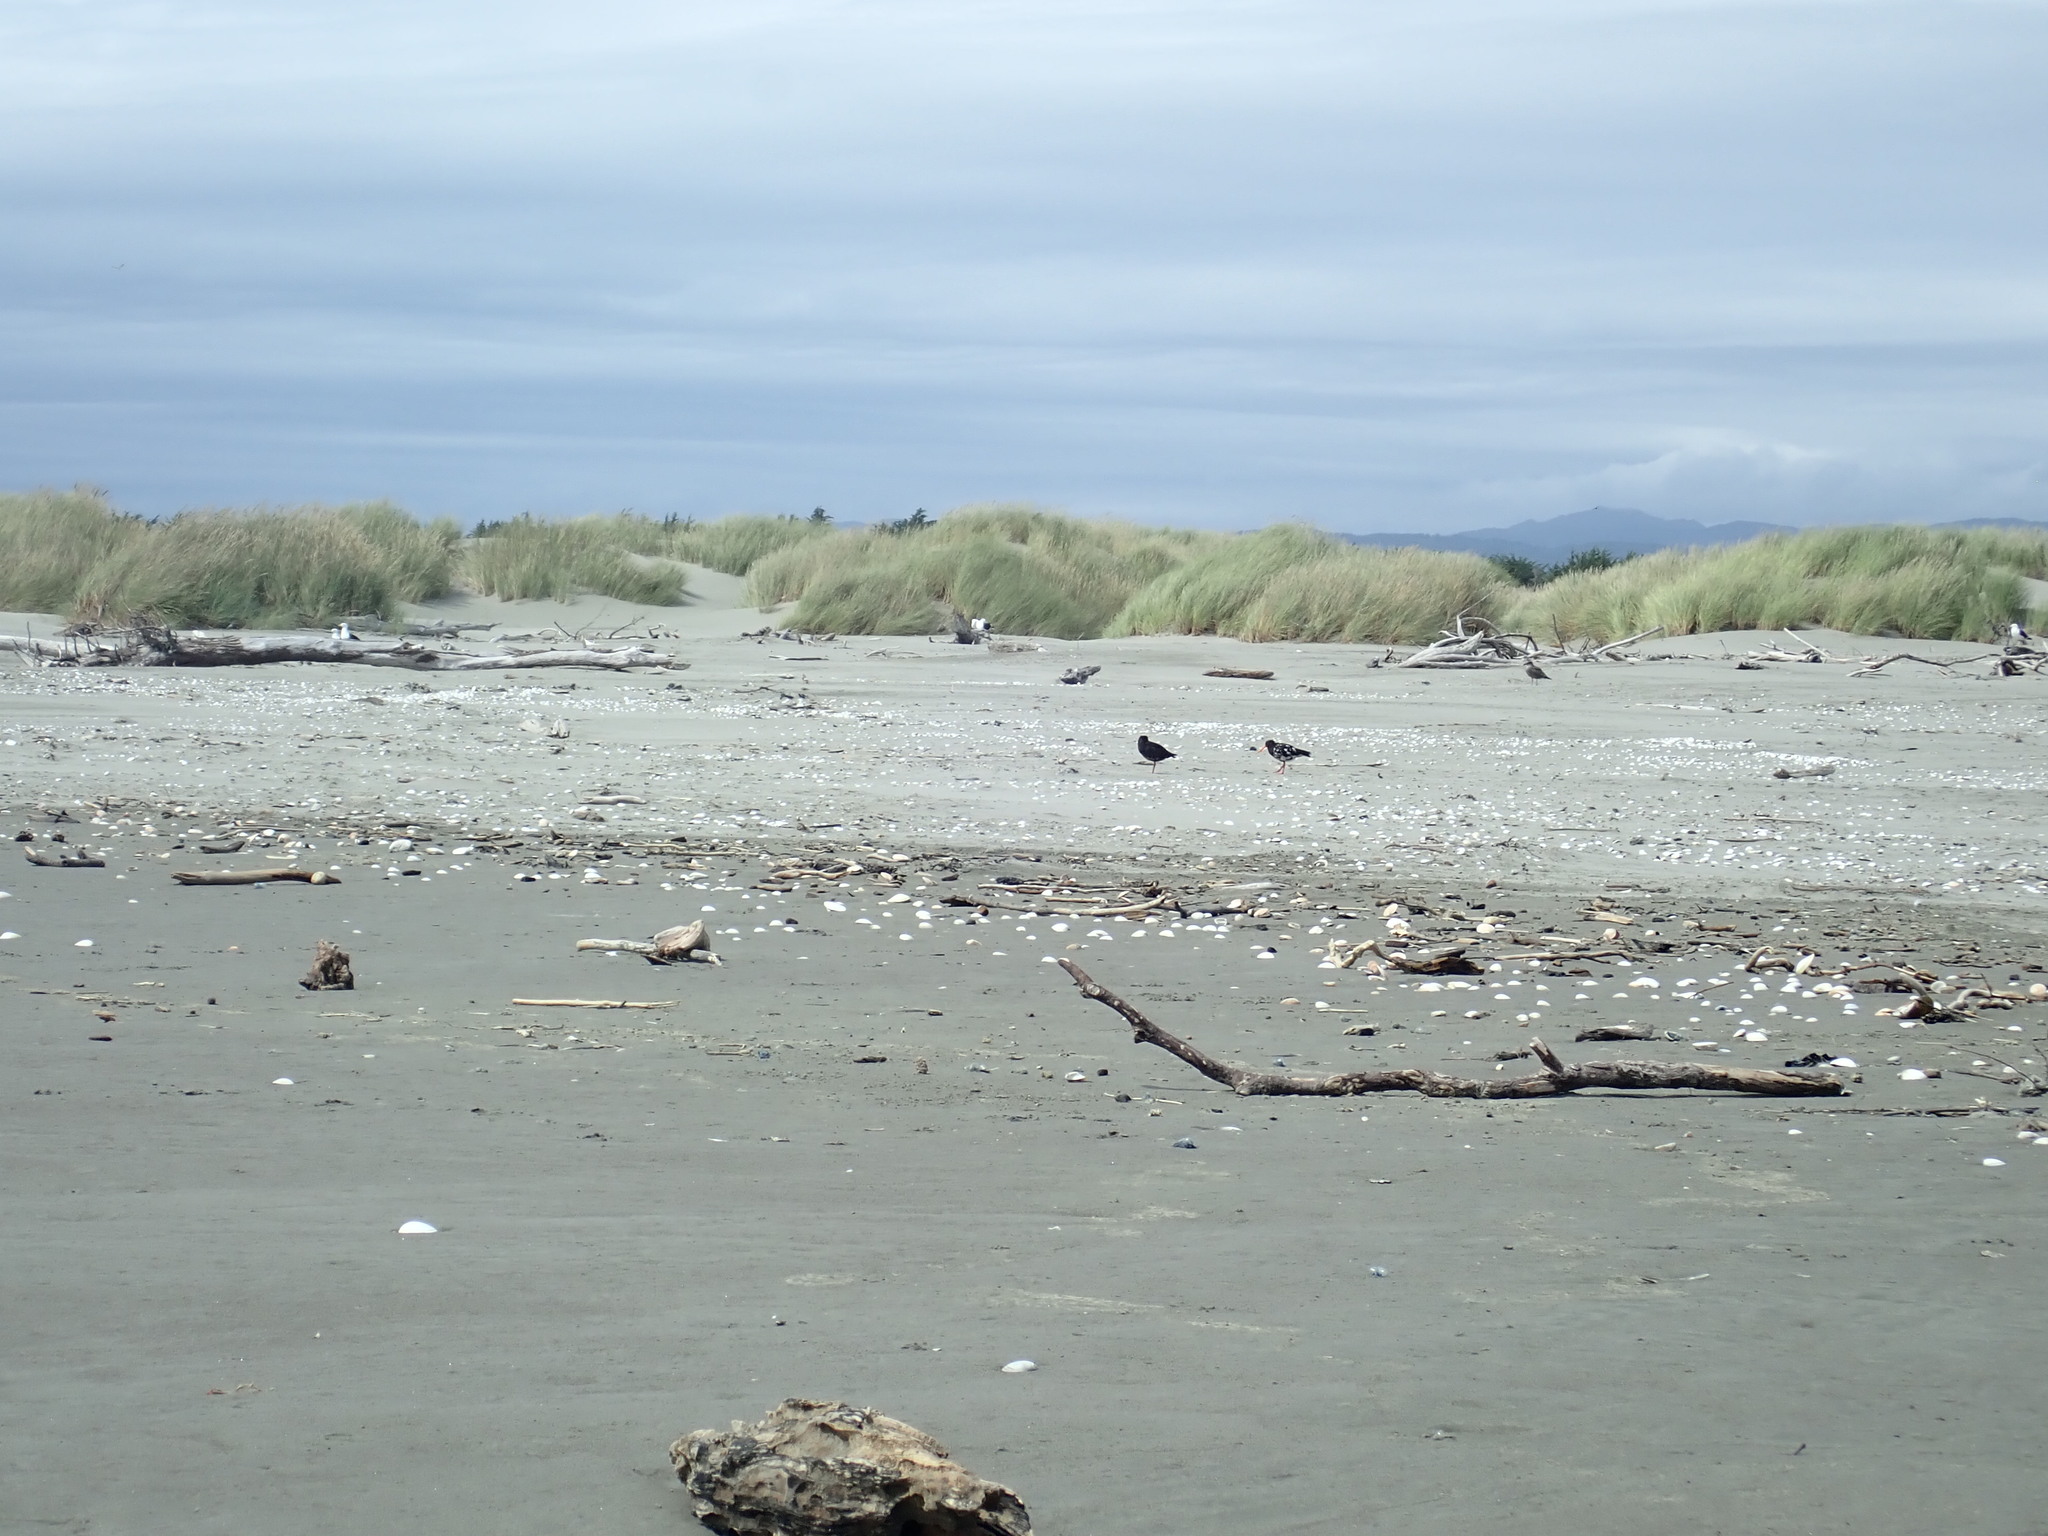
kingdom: Animalia
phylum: Chordata
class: Aves
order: Charadriiformes
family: Haematopodidae
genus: Haematopus
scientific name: Haematopus unicolor
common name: Variable oystercatcher
